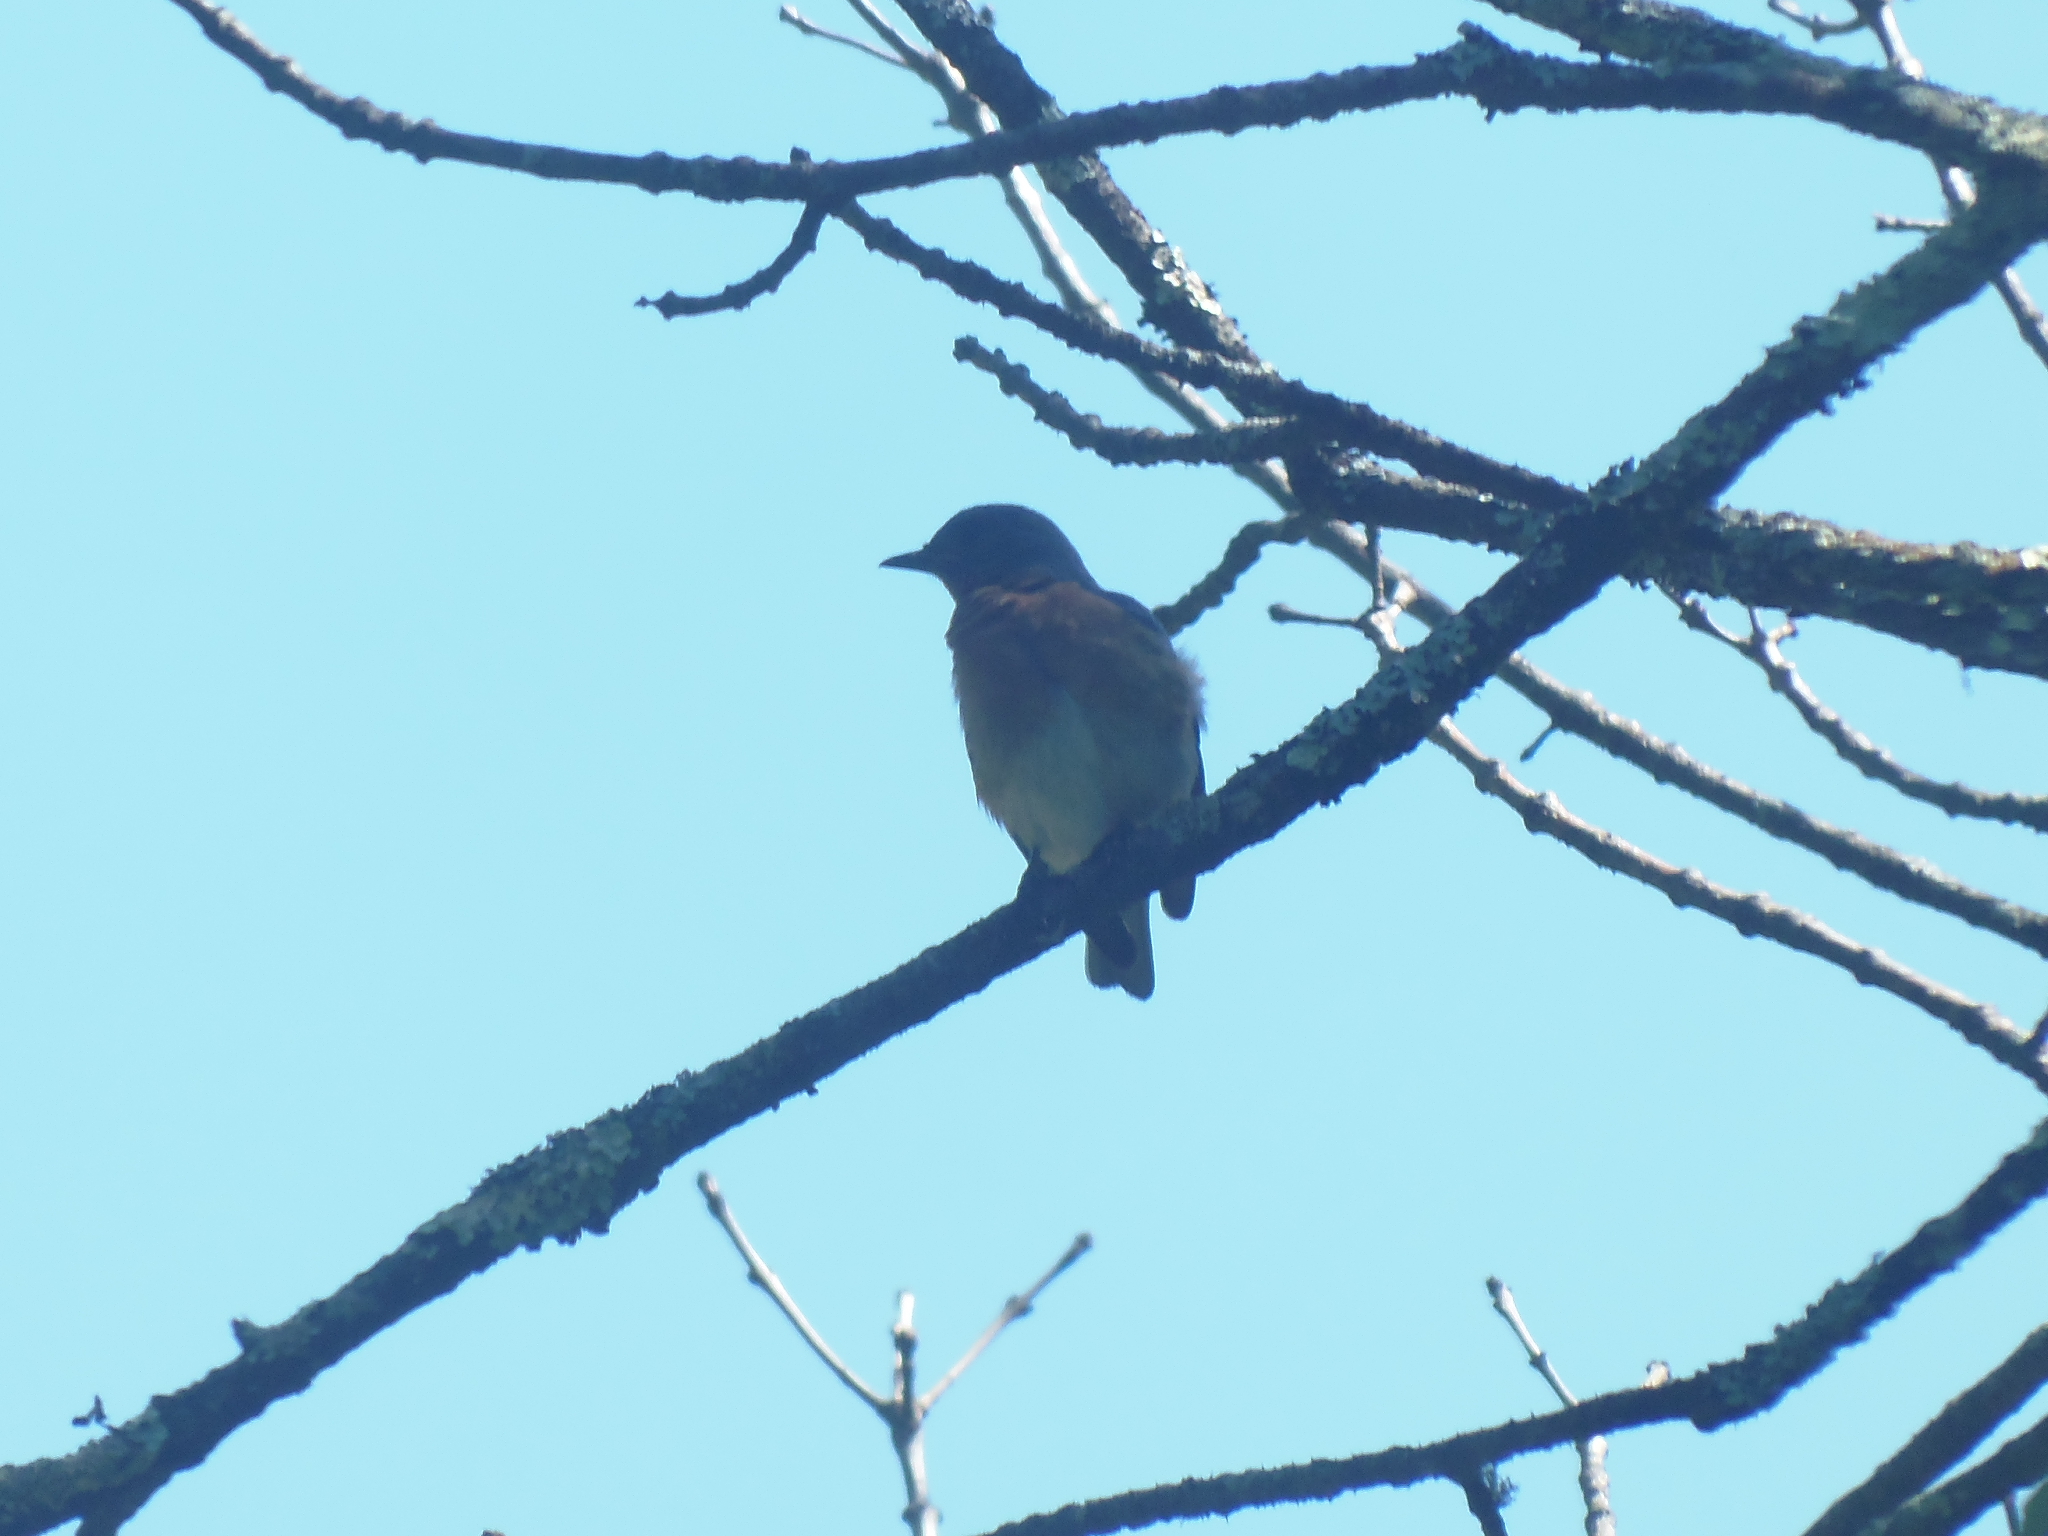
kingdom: Animalia
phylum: Chordata
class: Aves
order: Passeriformes
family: Turdidae
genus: Sialia
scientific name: Sialia sialis
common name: Eastern bluebird
